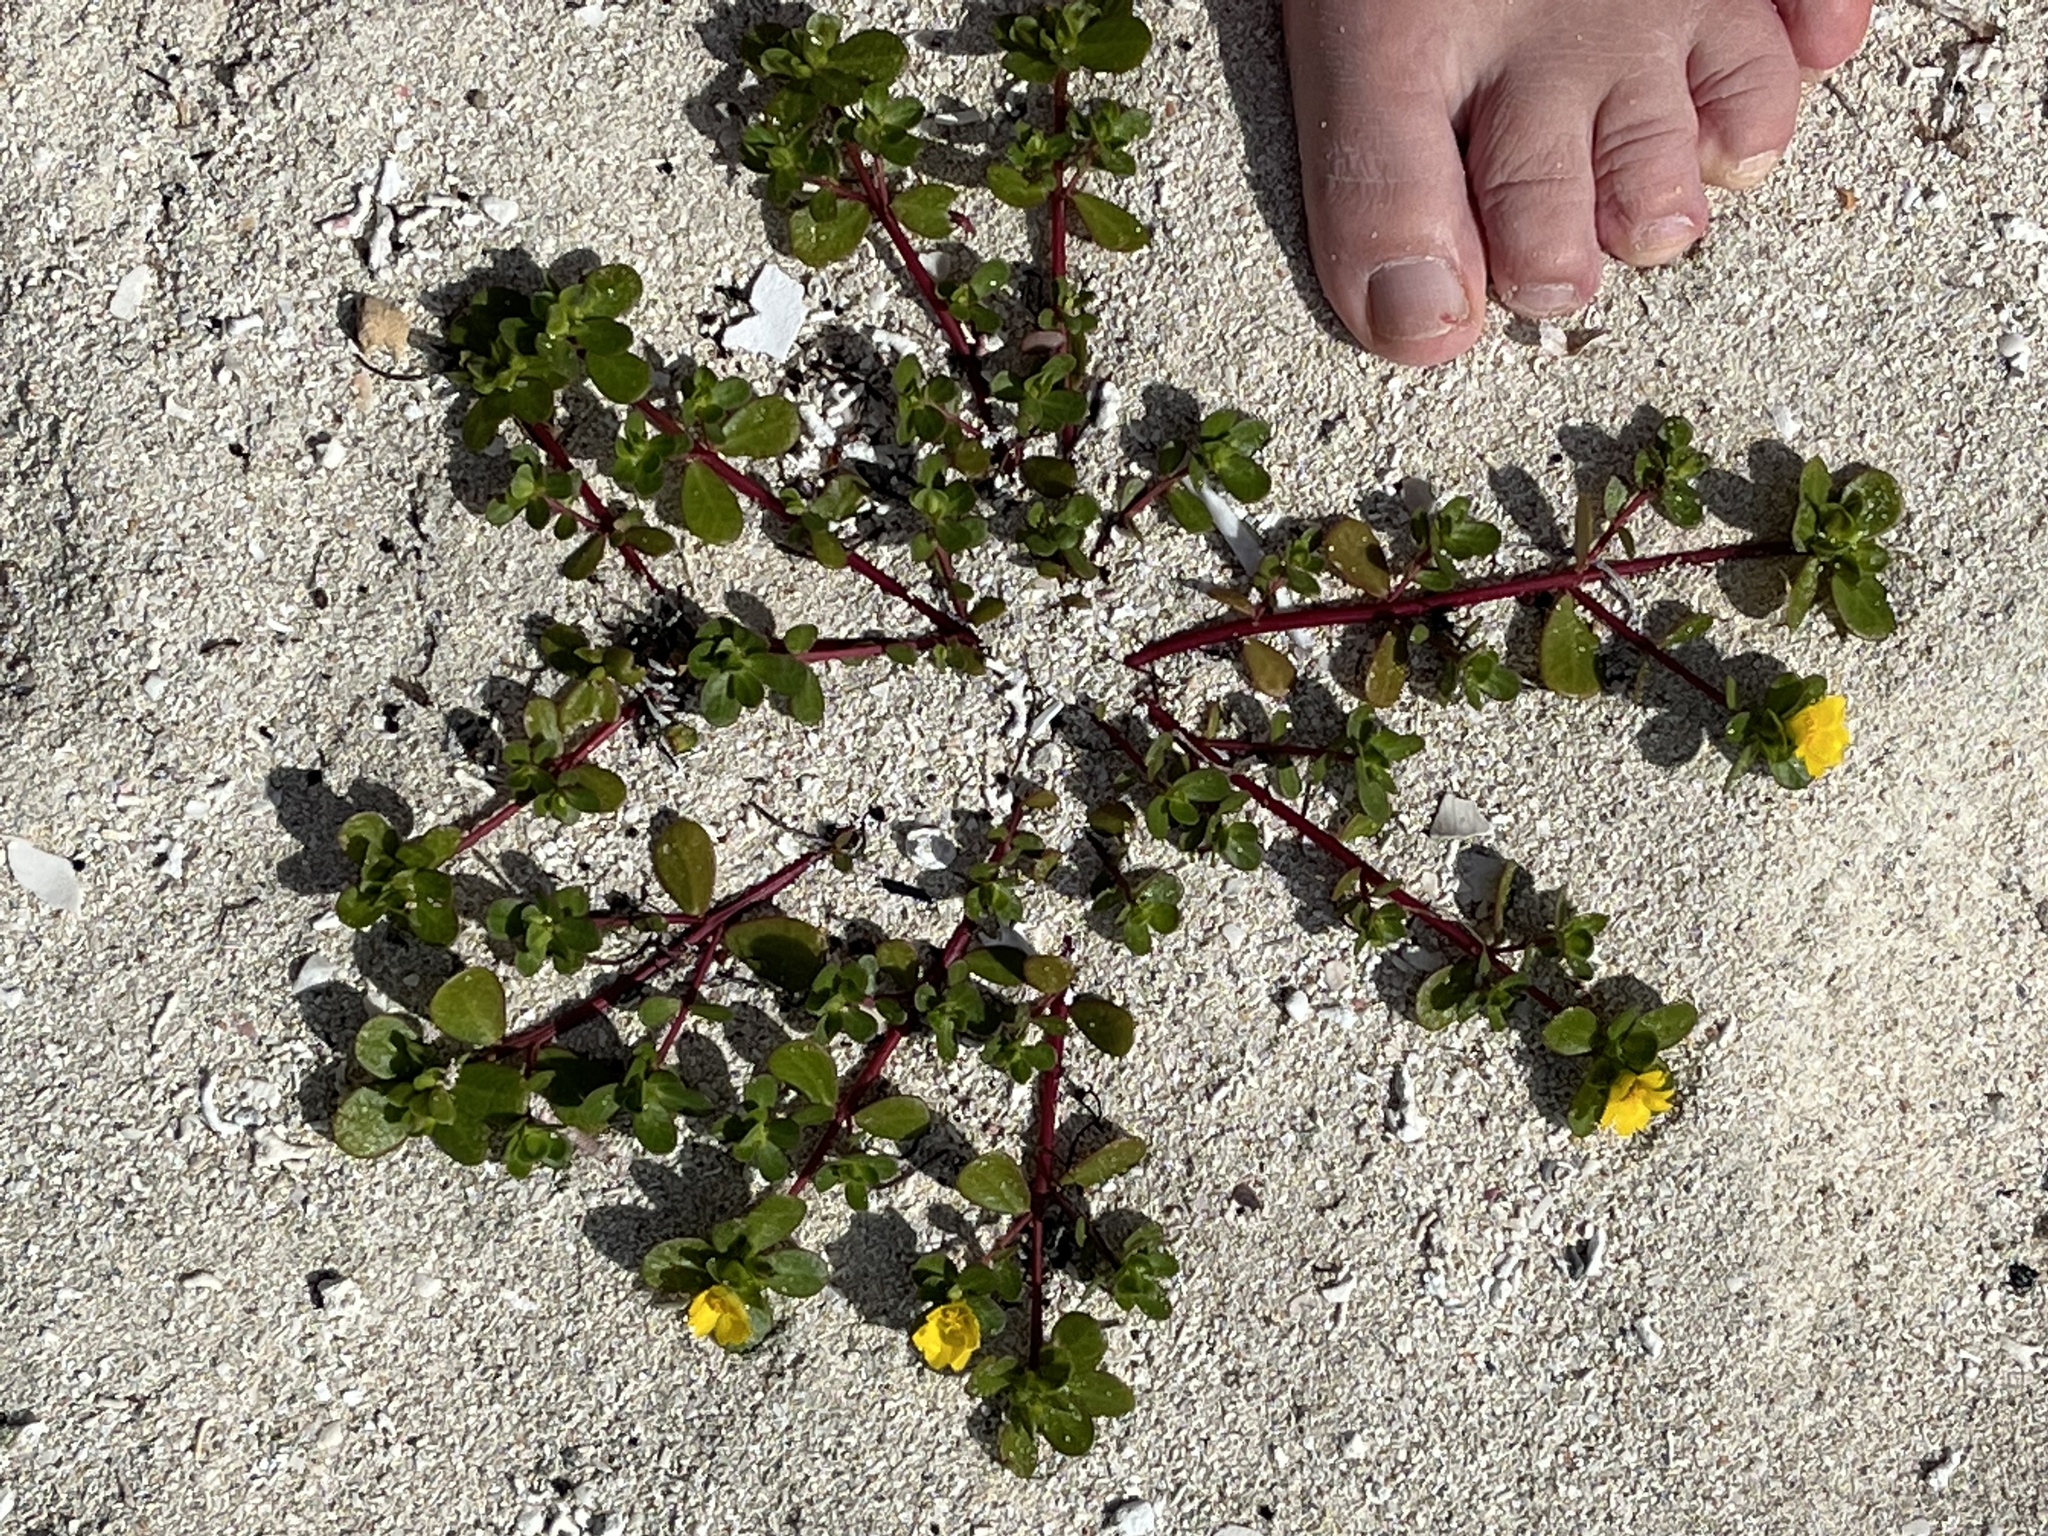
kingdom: Plantae
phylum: Tracheophyta
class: Magnoliopsida
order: Caryophyllales
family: Portulacaceae
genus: Portulaca
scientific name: Portulaca oleracea
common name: Common purslane
